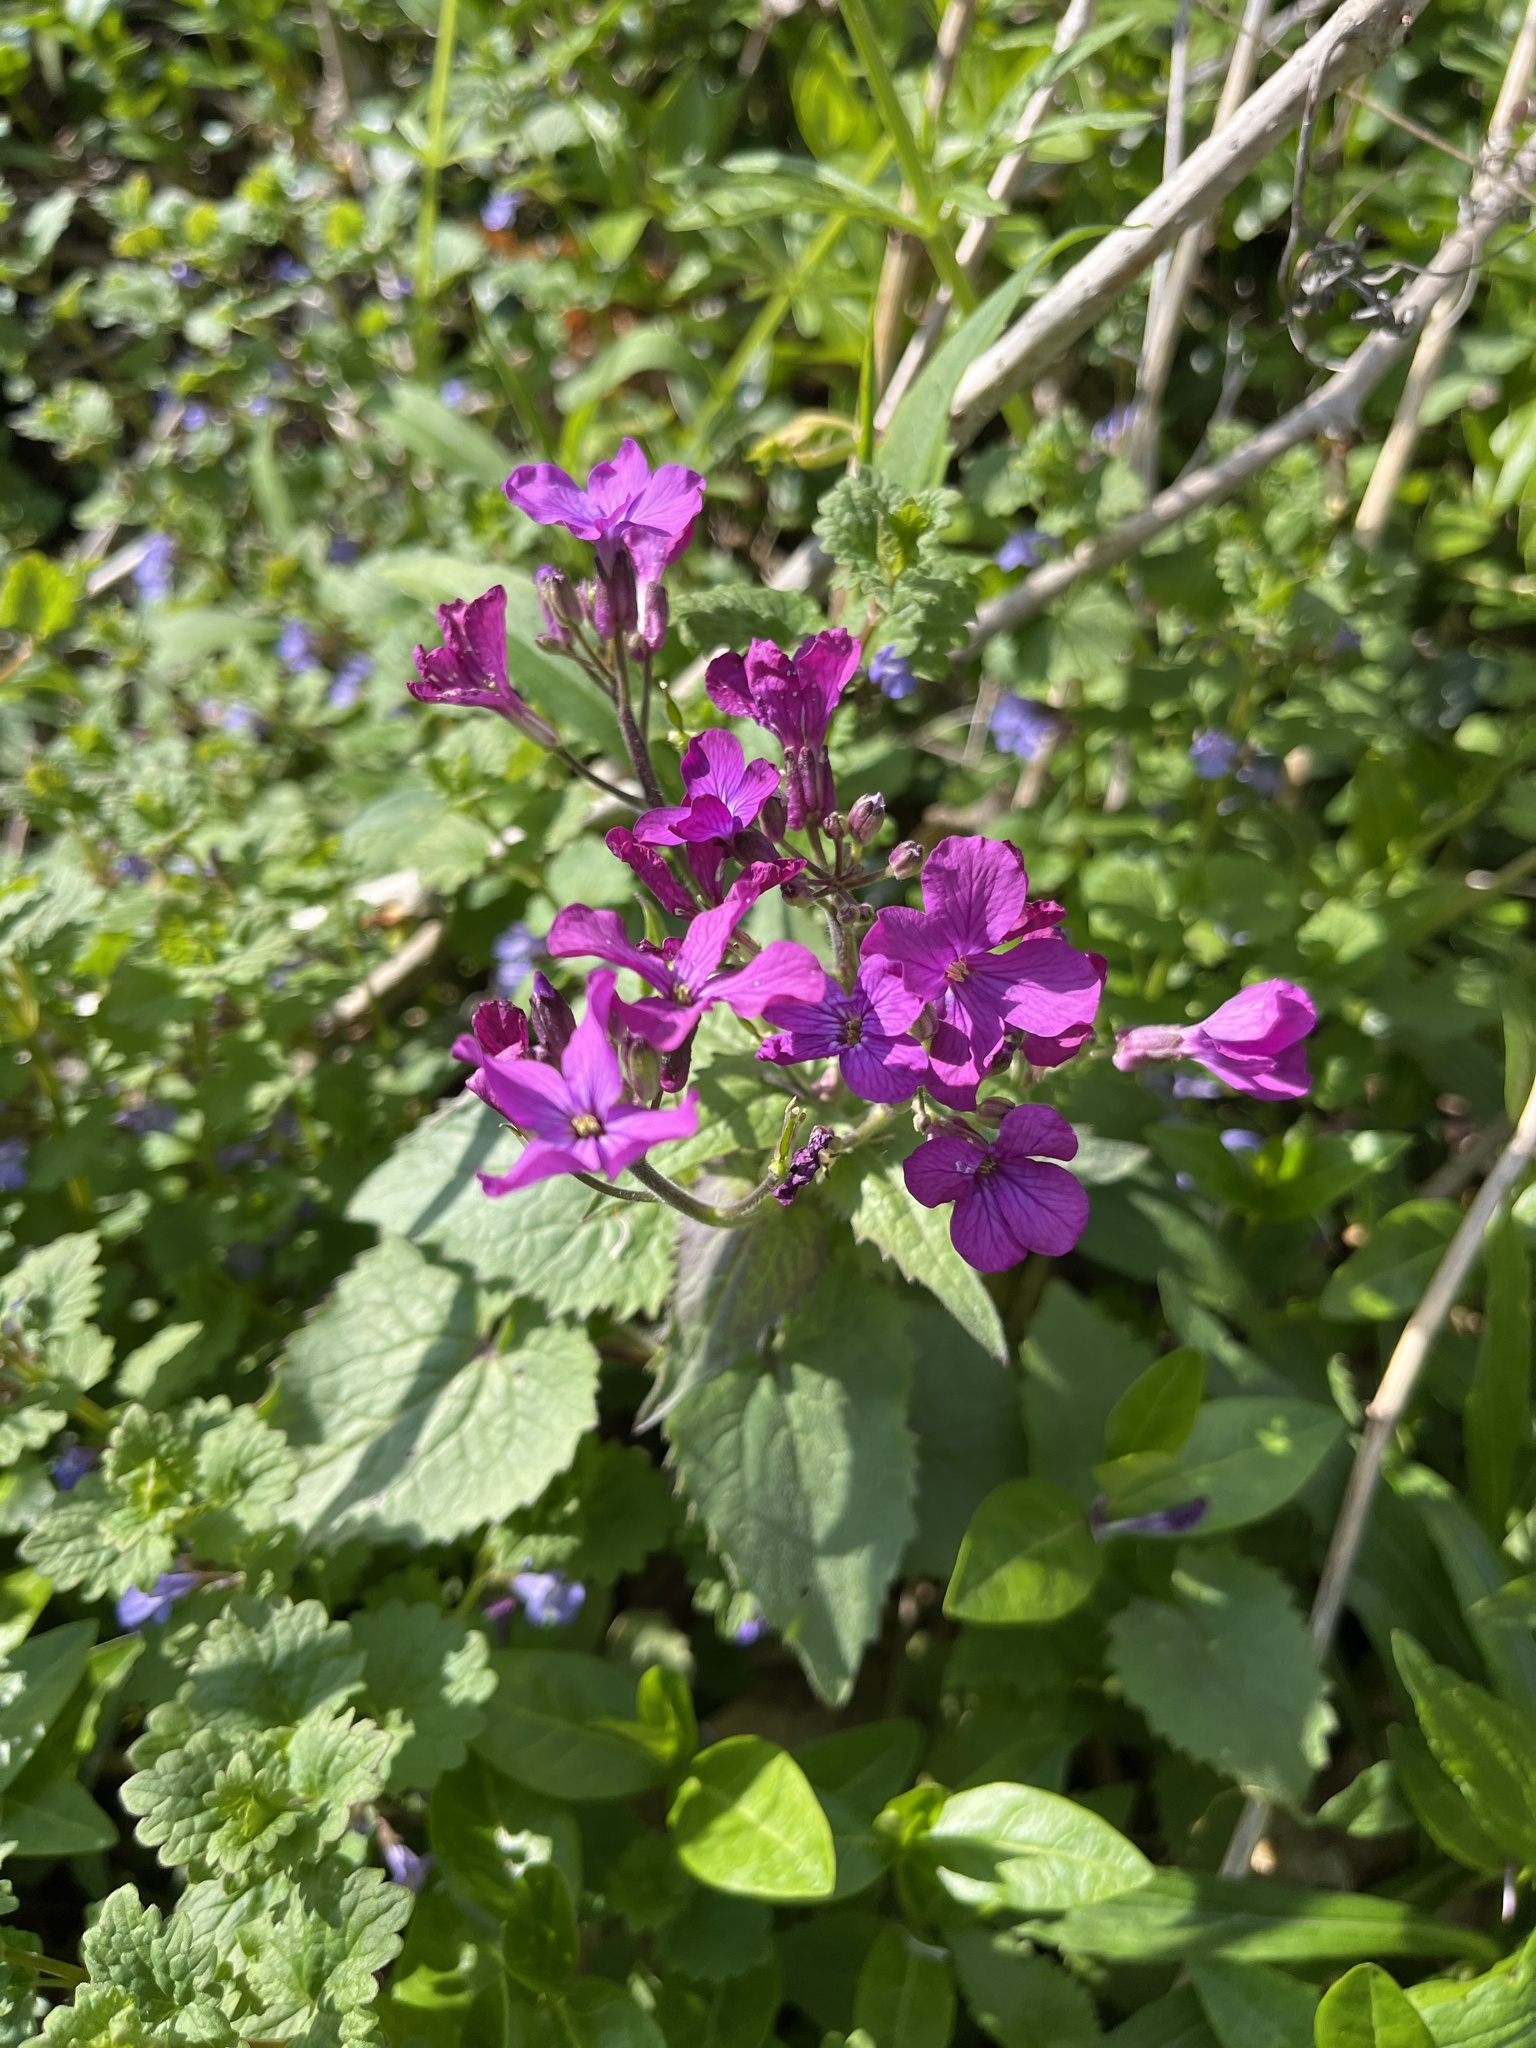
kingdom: Plantae
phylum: Tracheophyta
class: Magnoliopsida
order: Brassicales
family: Brassicaceae
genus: Lunaria
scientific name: Lunaria annua
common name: Honesty
